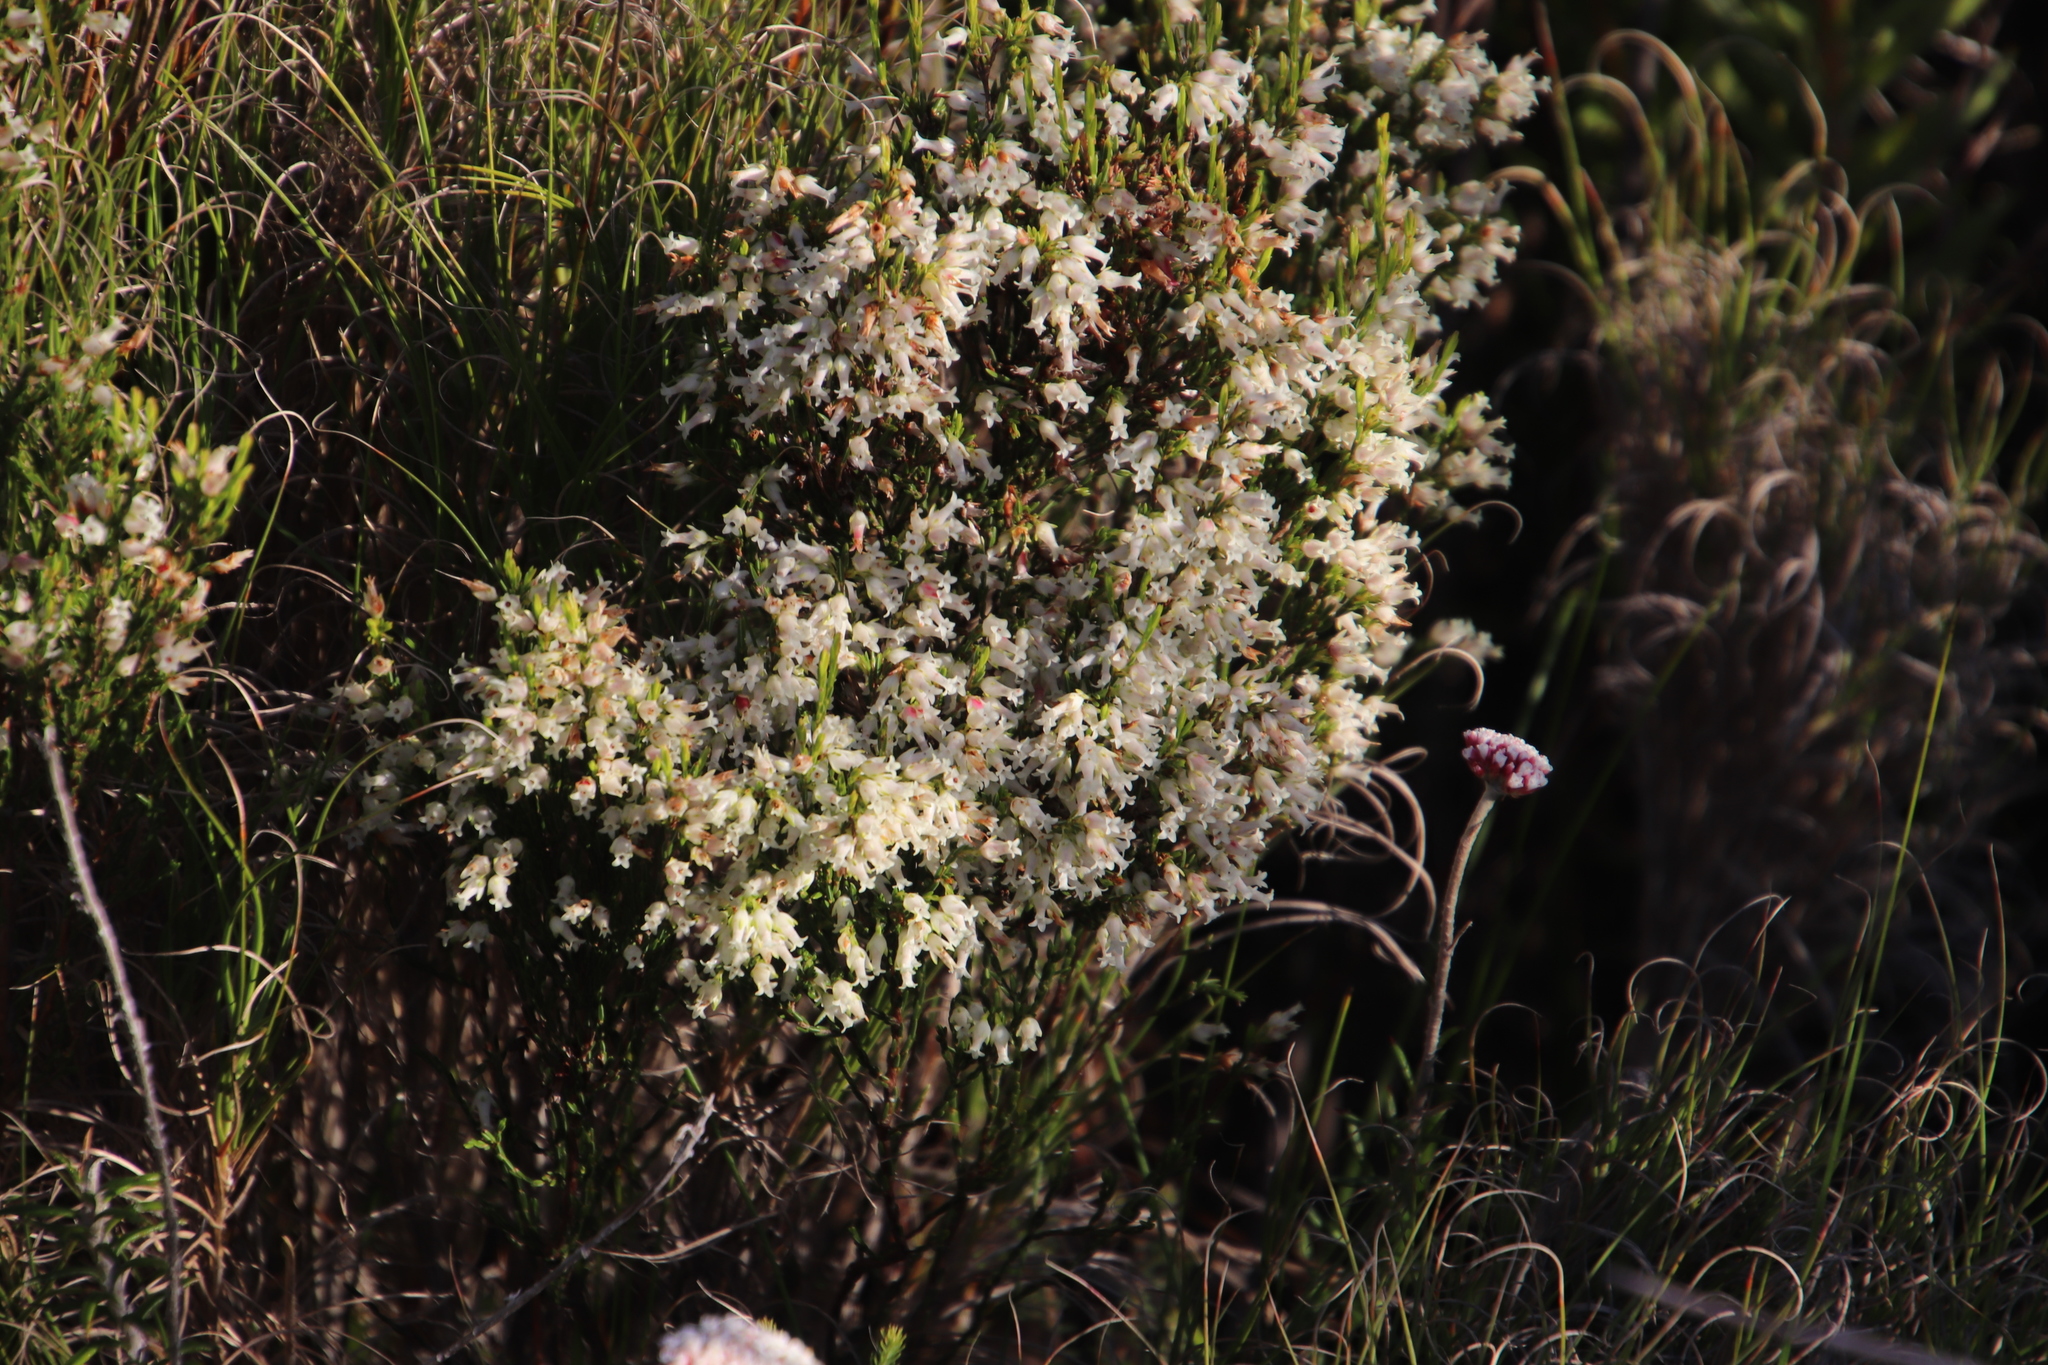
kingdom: Plantae
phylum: Tracheophyta
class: Magnoliopsida
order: Ericales
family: Ericaceae
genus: Erica
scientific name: Erica lutea
